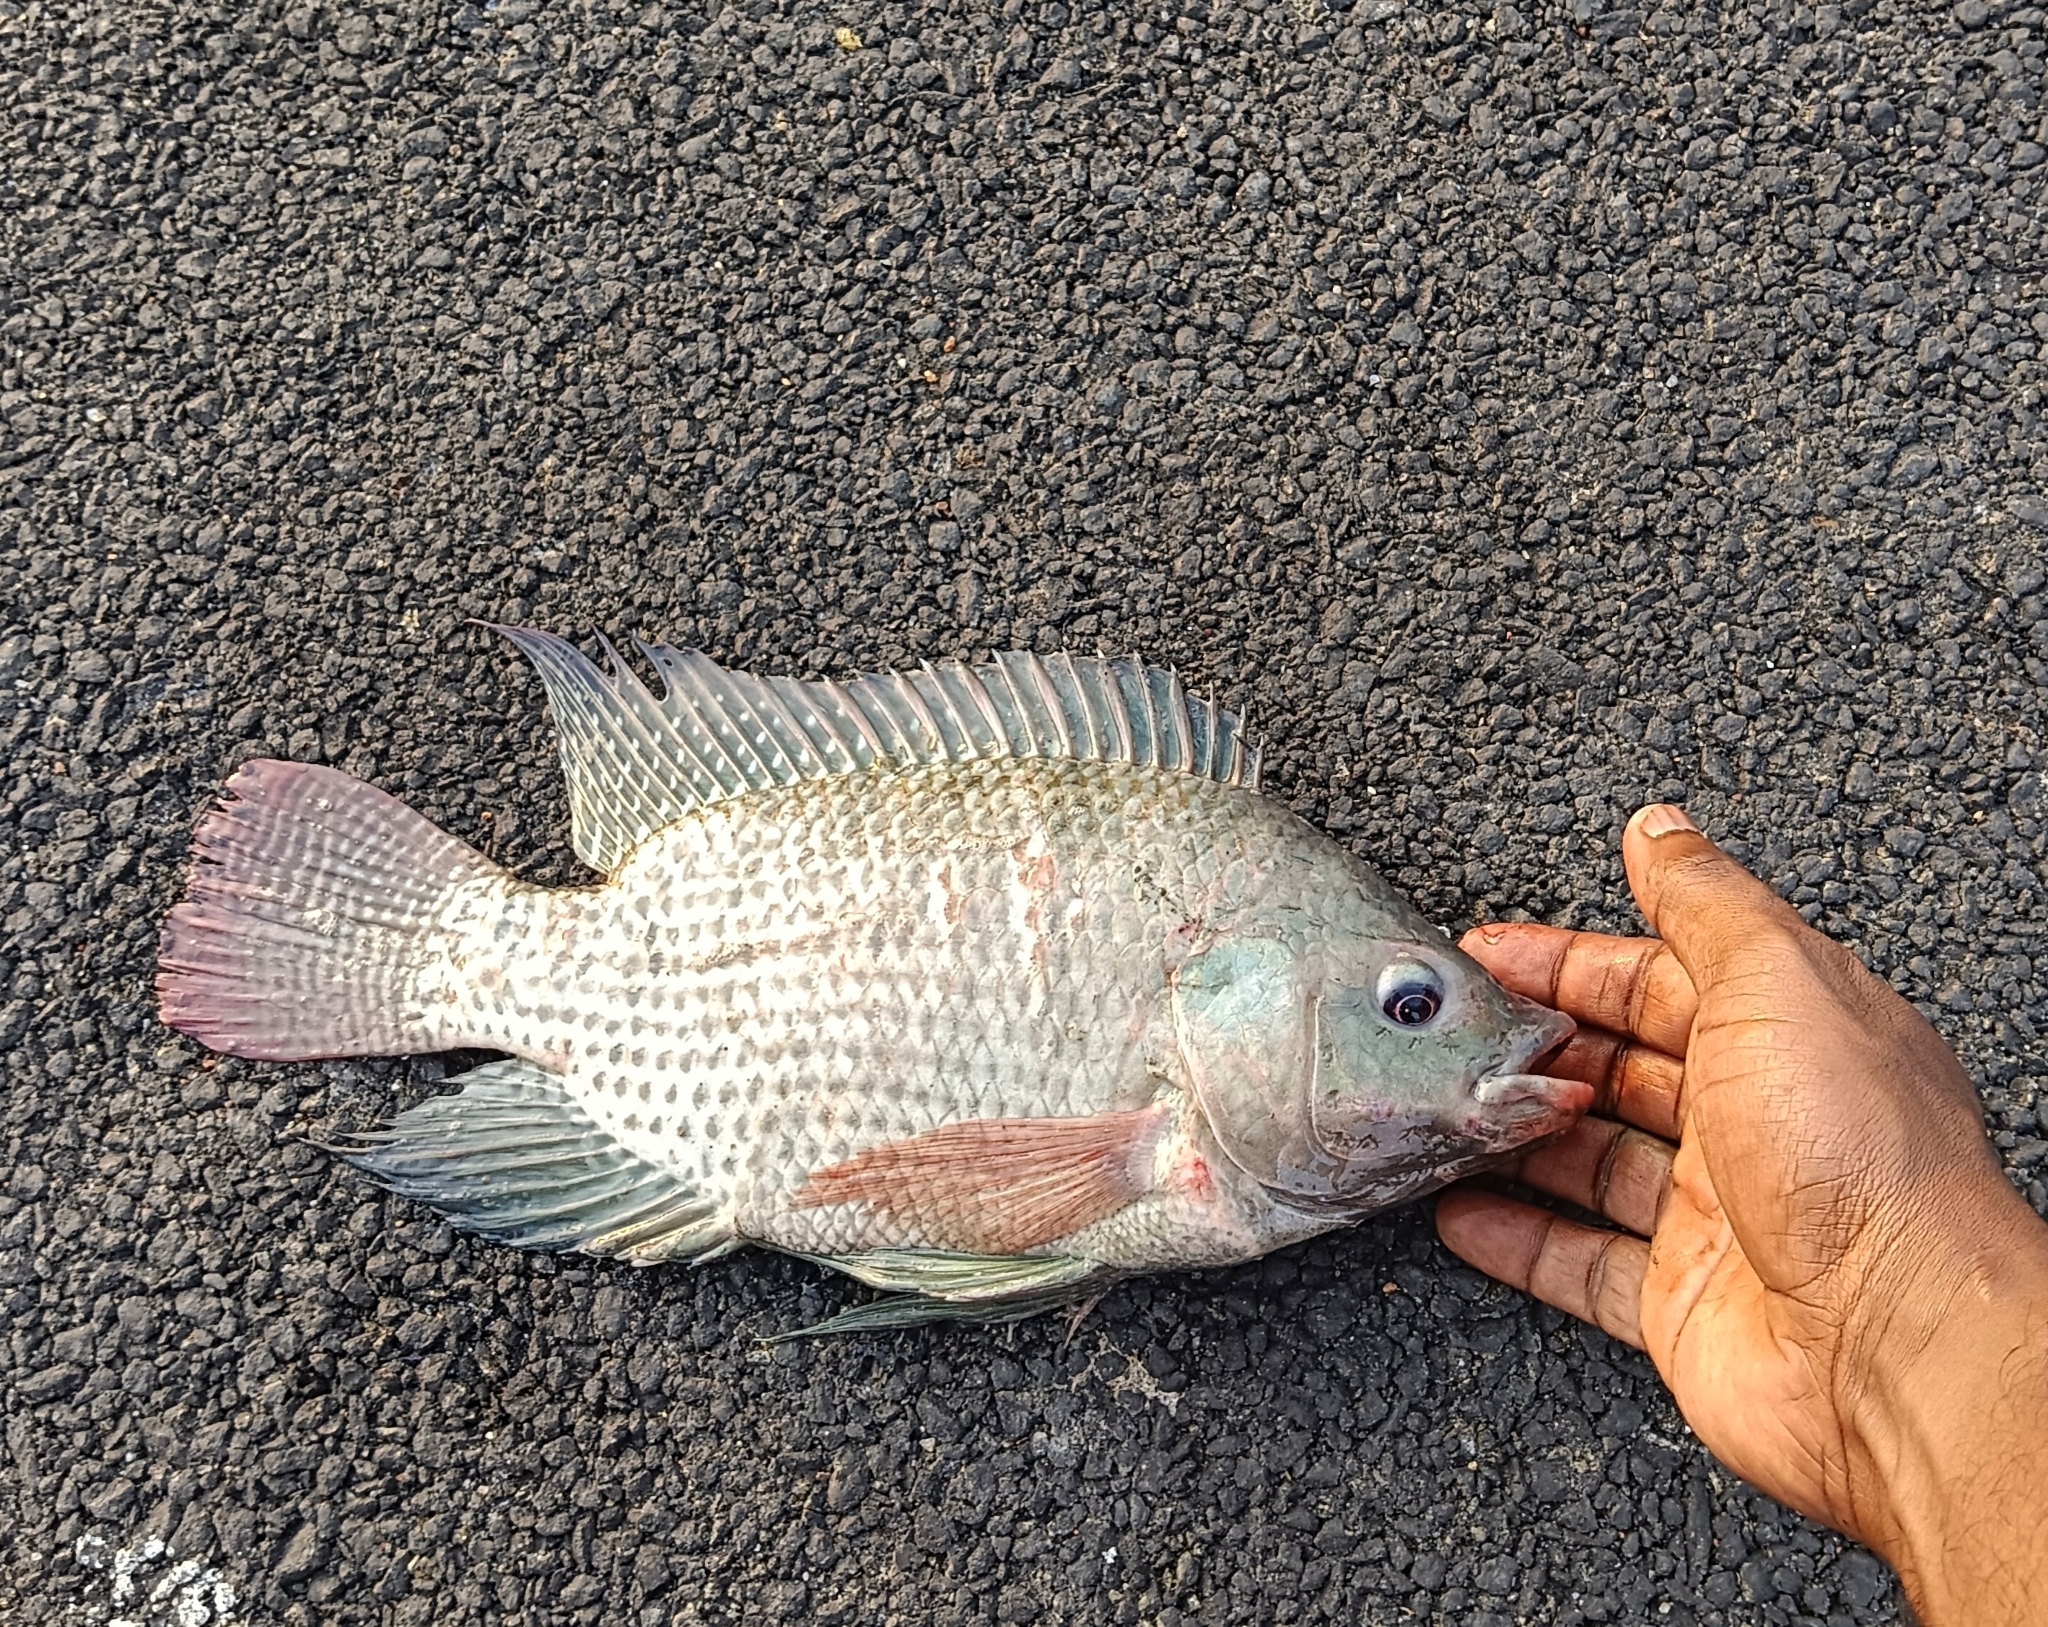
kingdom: Animalia
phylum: Chordata
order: Perciformes
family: Cichlidae
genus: Oreochromis
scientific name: Oreochromis mossambicus
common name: Mozambique tilapia
